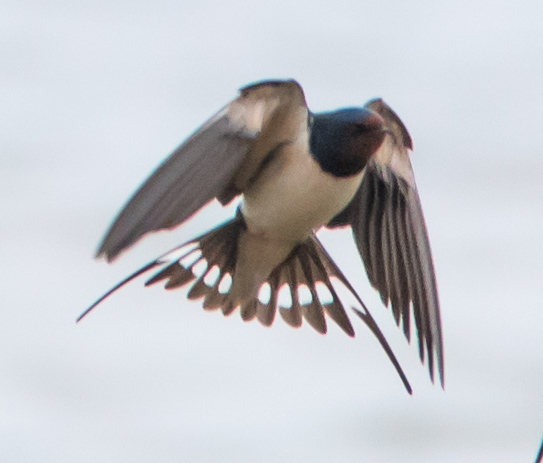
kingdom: Animalia
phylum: Chordata
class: Aves
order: Passeriformes
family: Hirundinidae
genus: Hirundo
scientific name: Hirundo rustica
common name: Barn swallow
